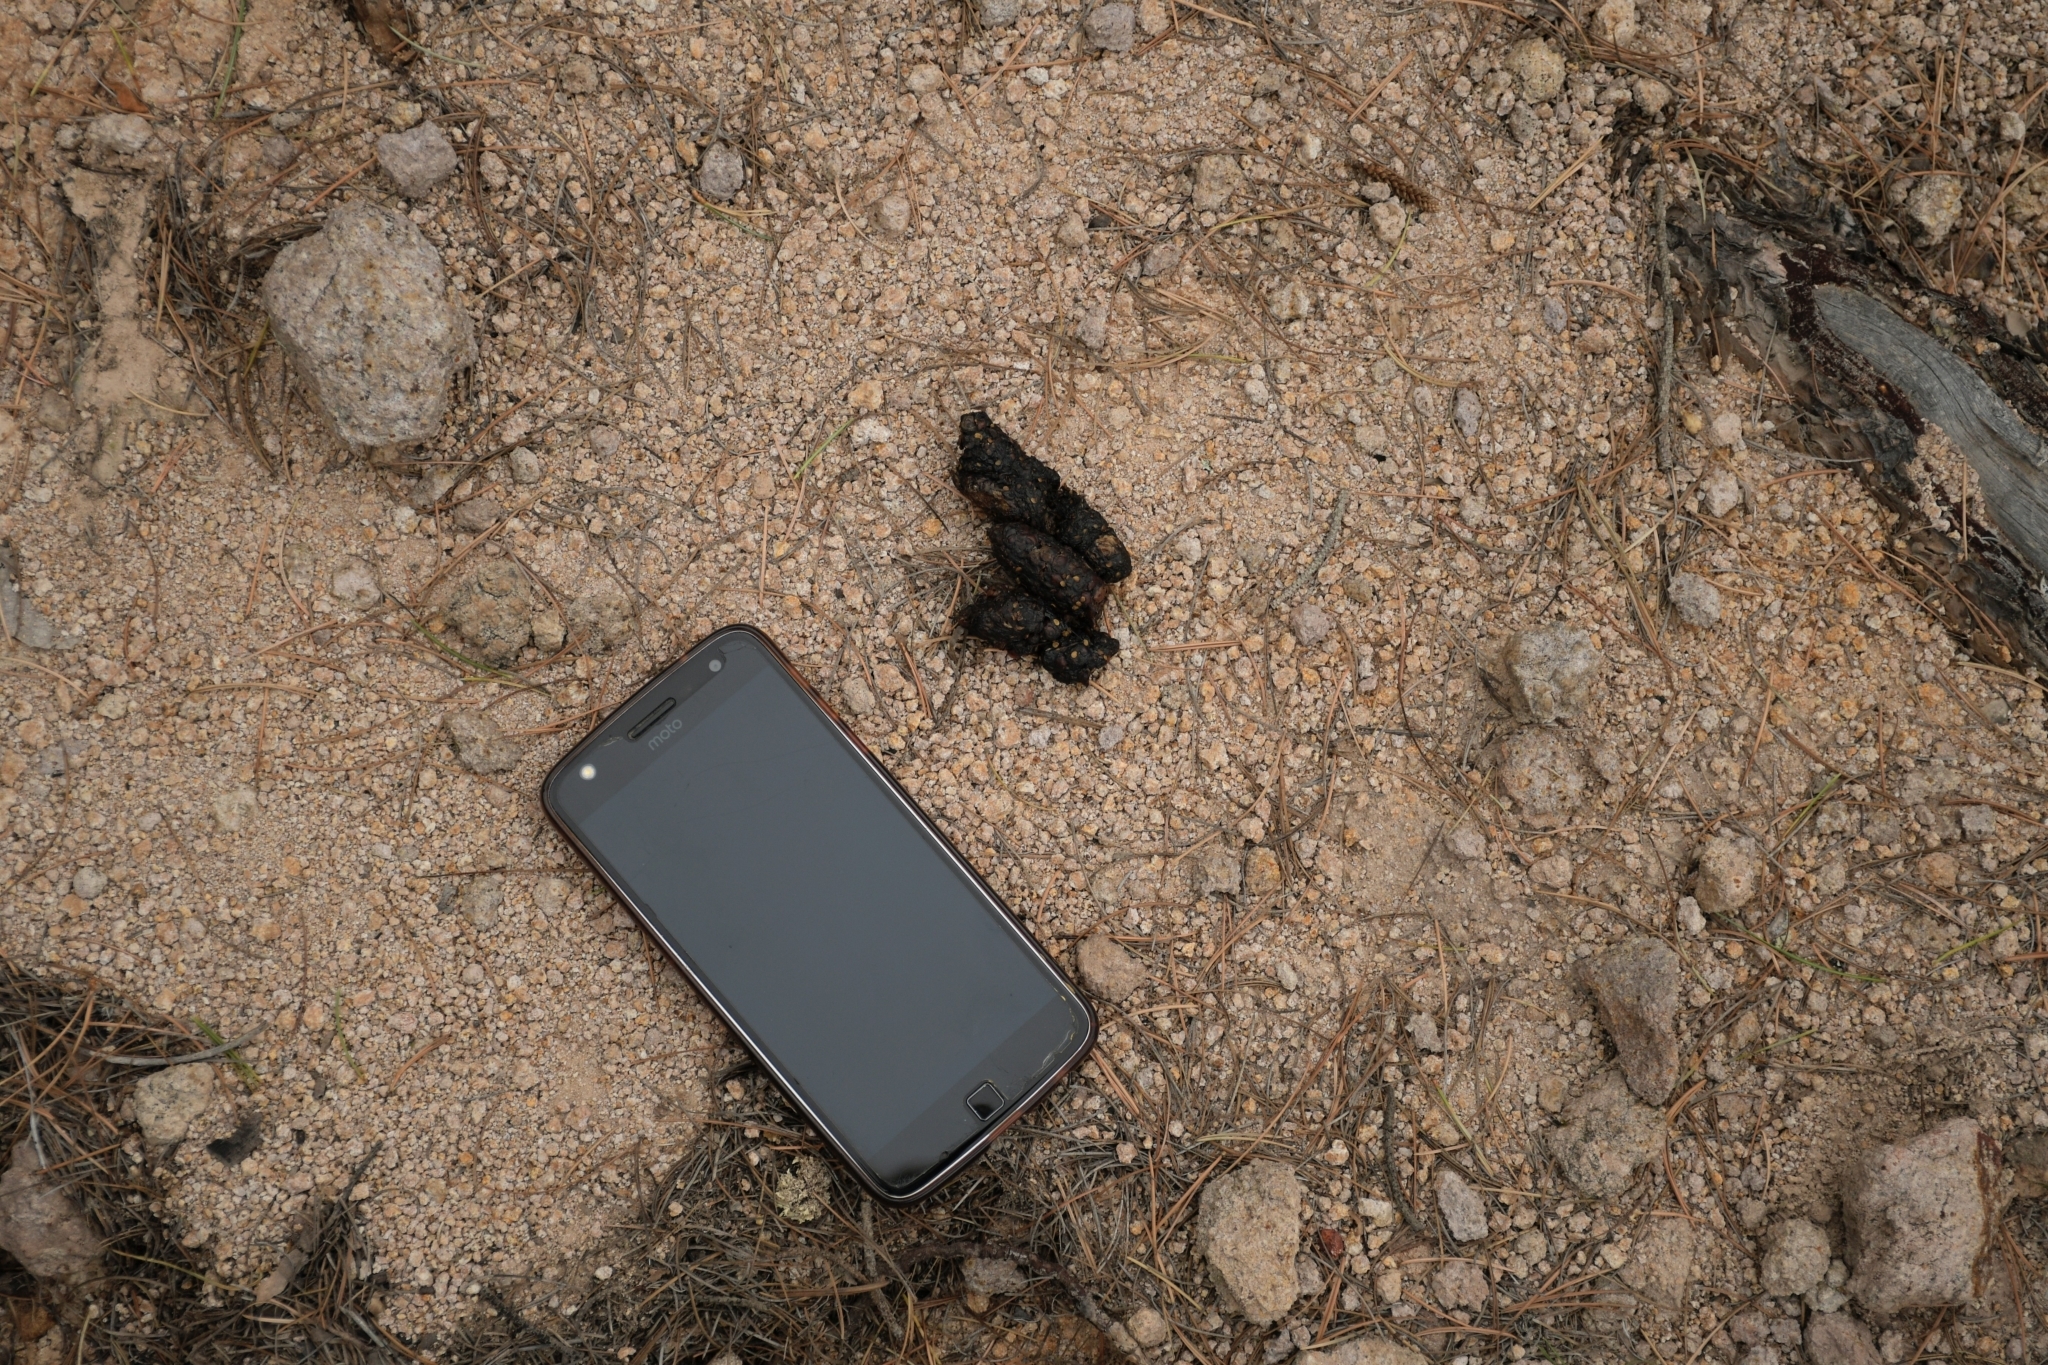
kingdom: Animalia
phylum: Chordata
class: Mammalia
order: Carnivora
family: Canidae
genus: Urocyon
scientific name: Urocyon cinereoargenteus
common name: Gray fox
